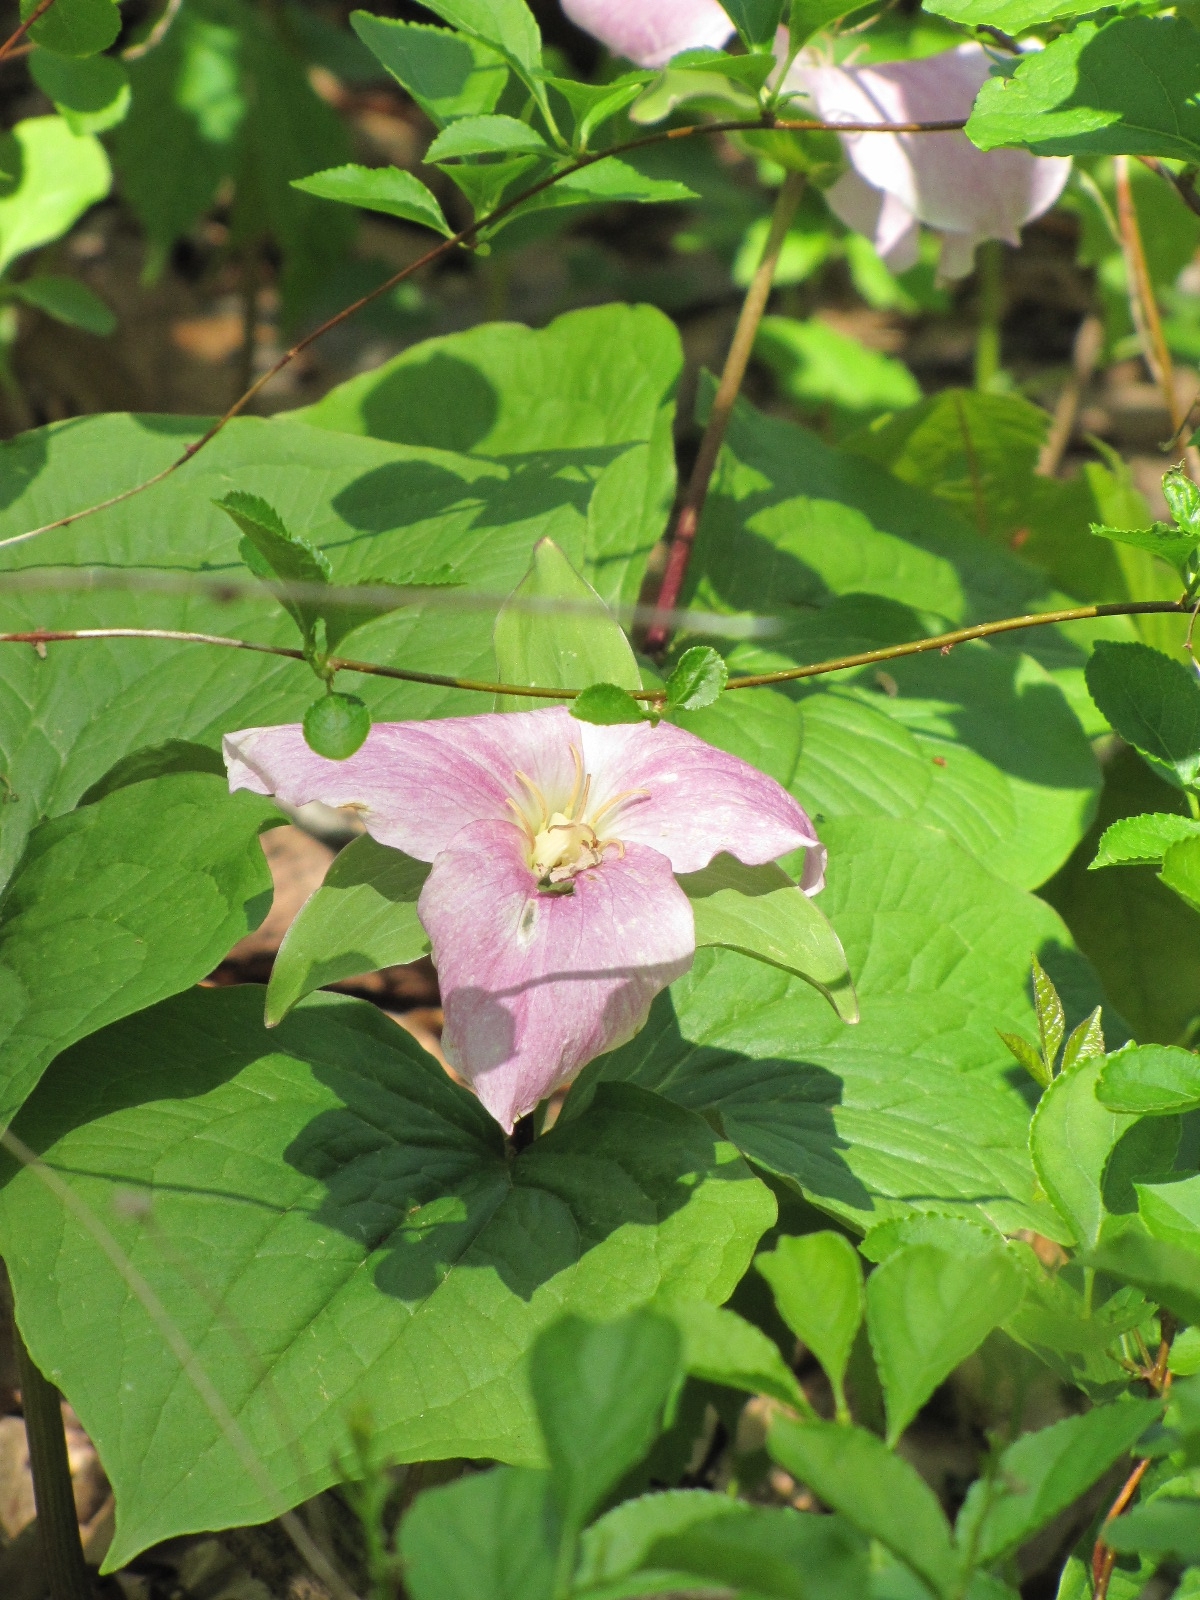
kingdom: Plantae
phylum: Tracheophyta
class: Liliopsida
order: Liliales
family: Melanthiaceae
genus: Trillium
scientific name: Trillium grandiflorum
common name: Great white trillium
